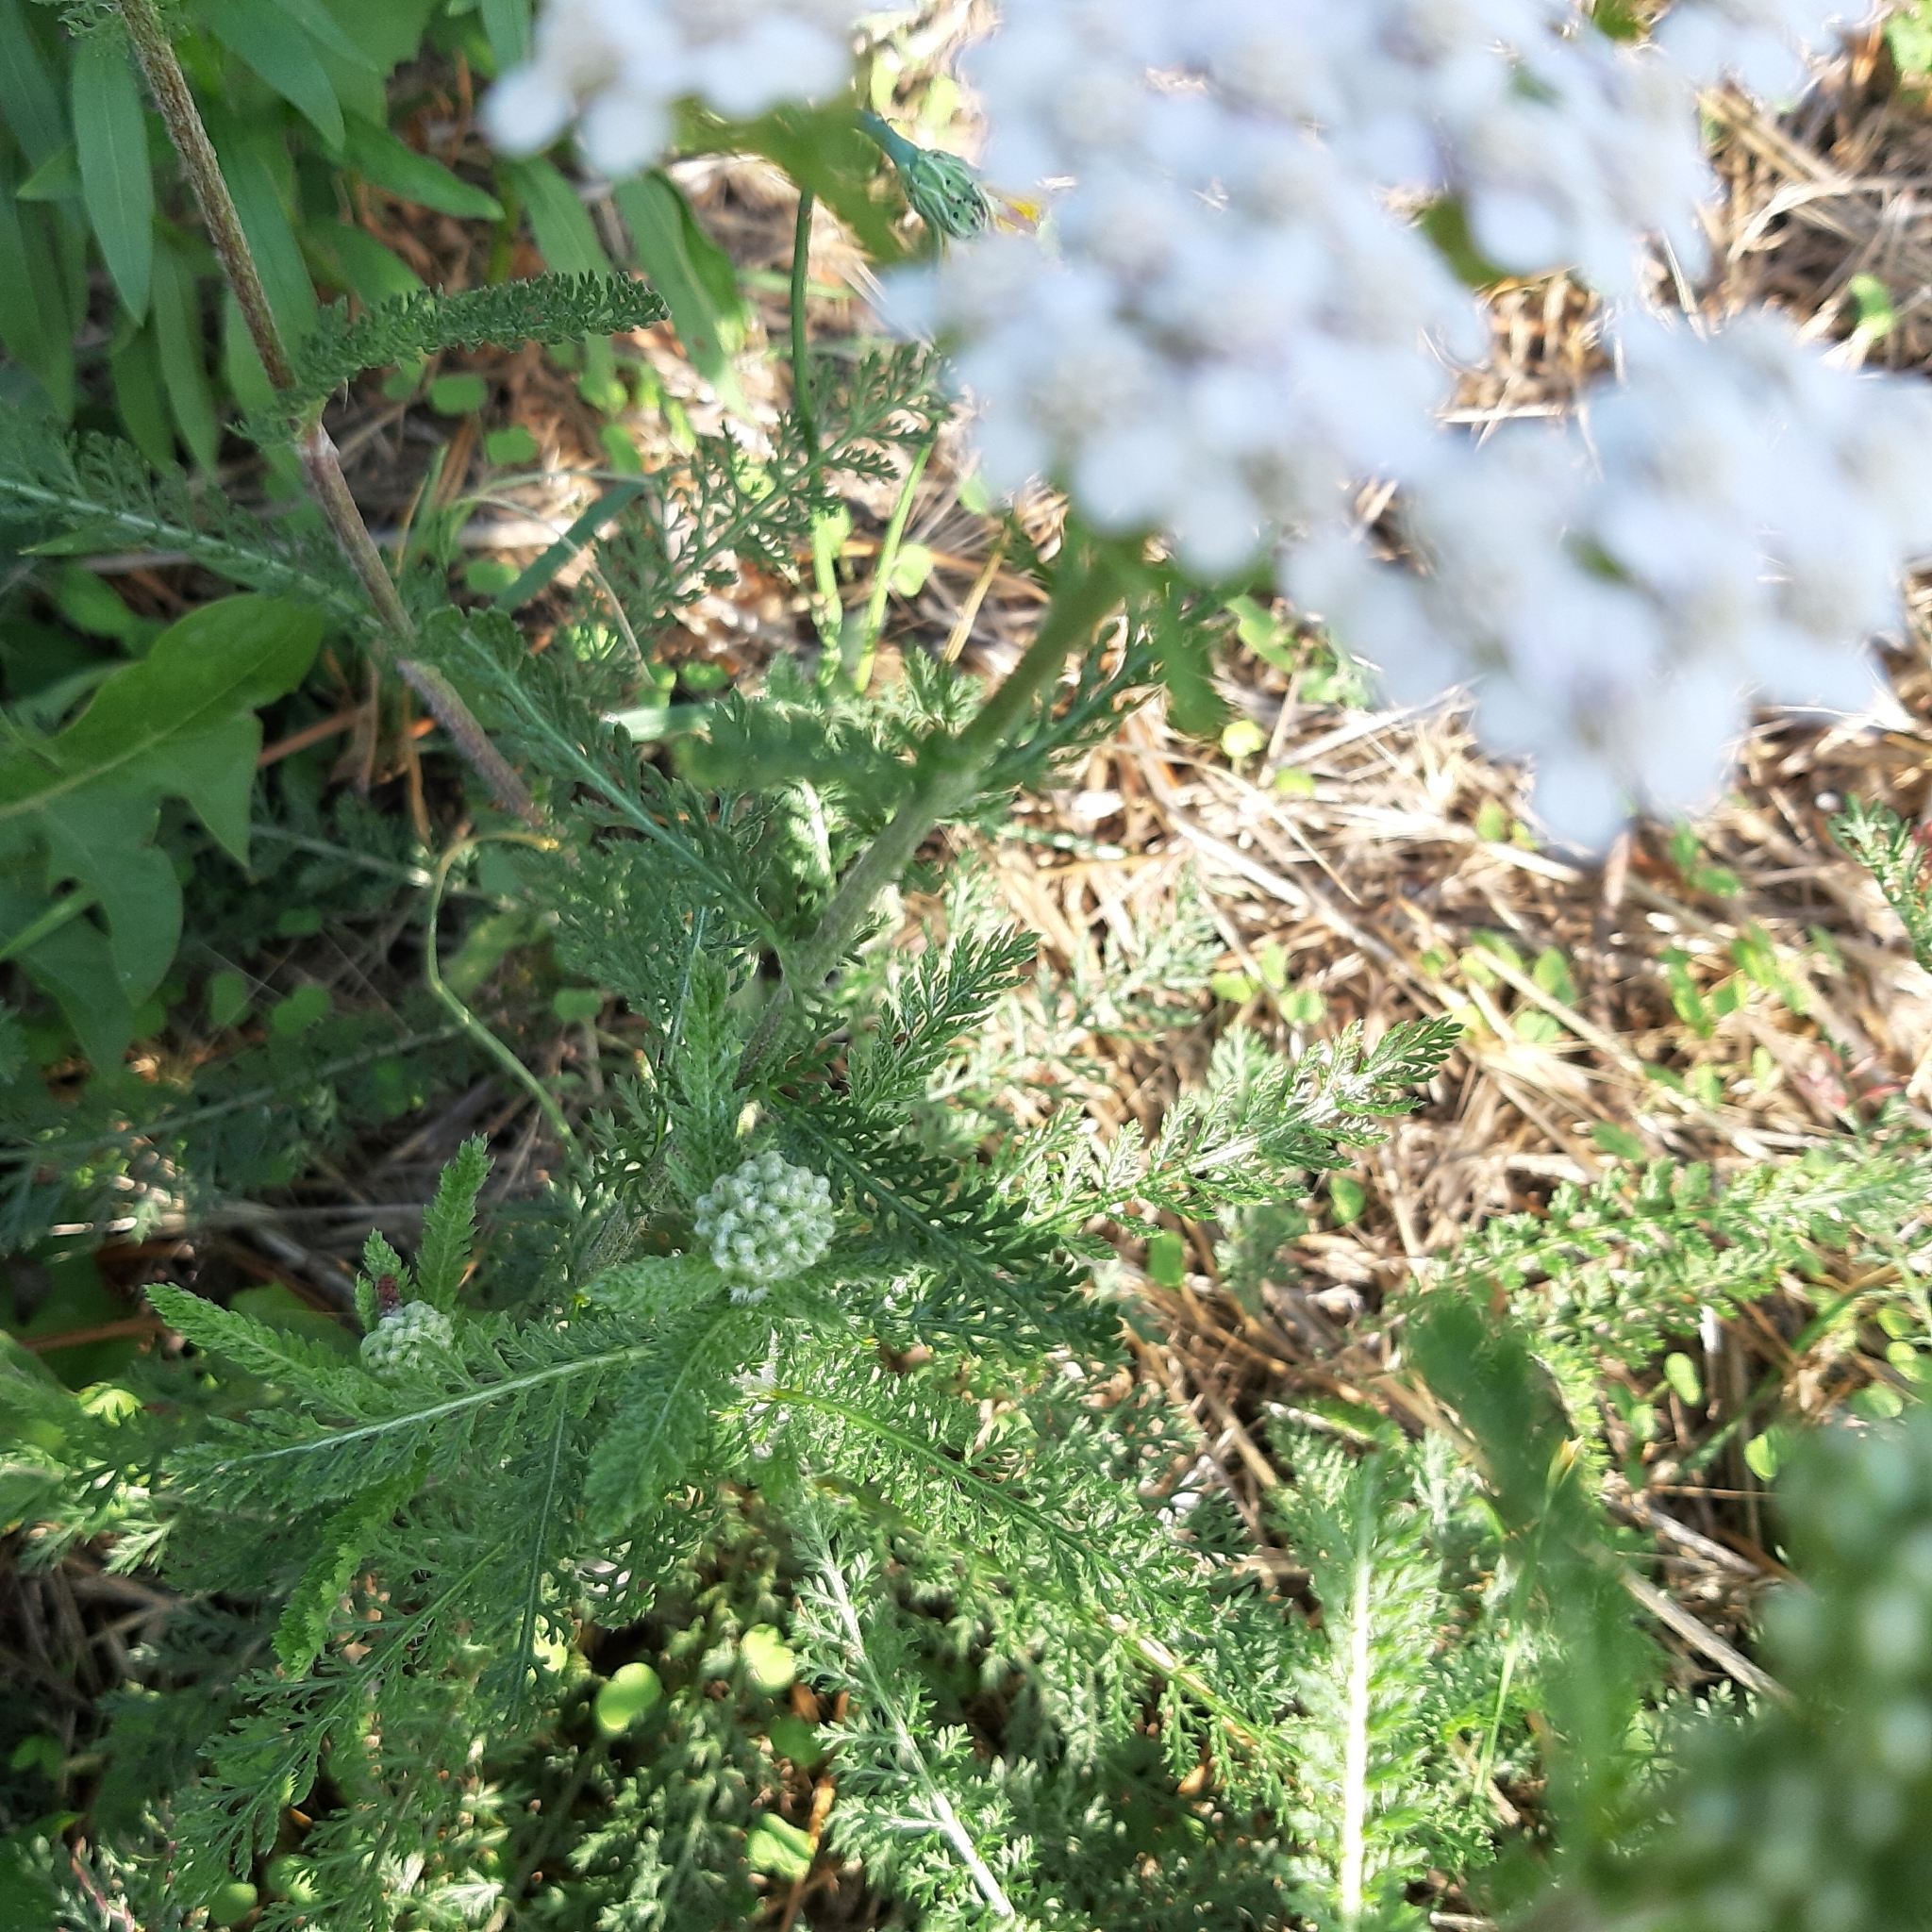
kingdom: Plantae
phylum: Tracheophyta
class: Magnoliopsida
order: Asterales
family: Asteraceae
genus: Achillea
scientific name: Achillea millefolium
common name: Yarrow
